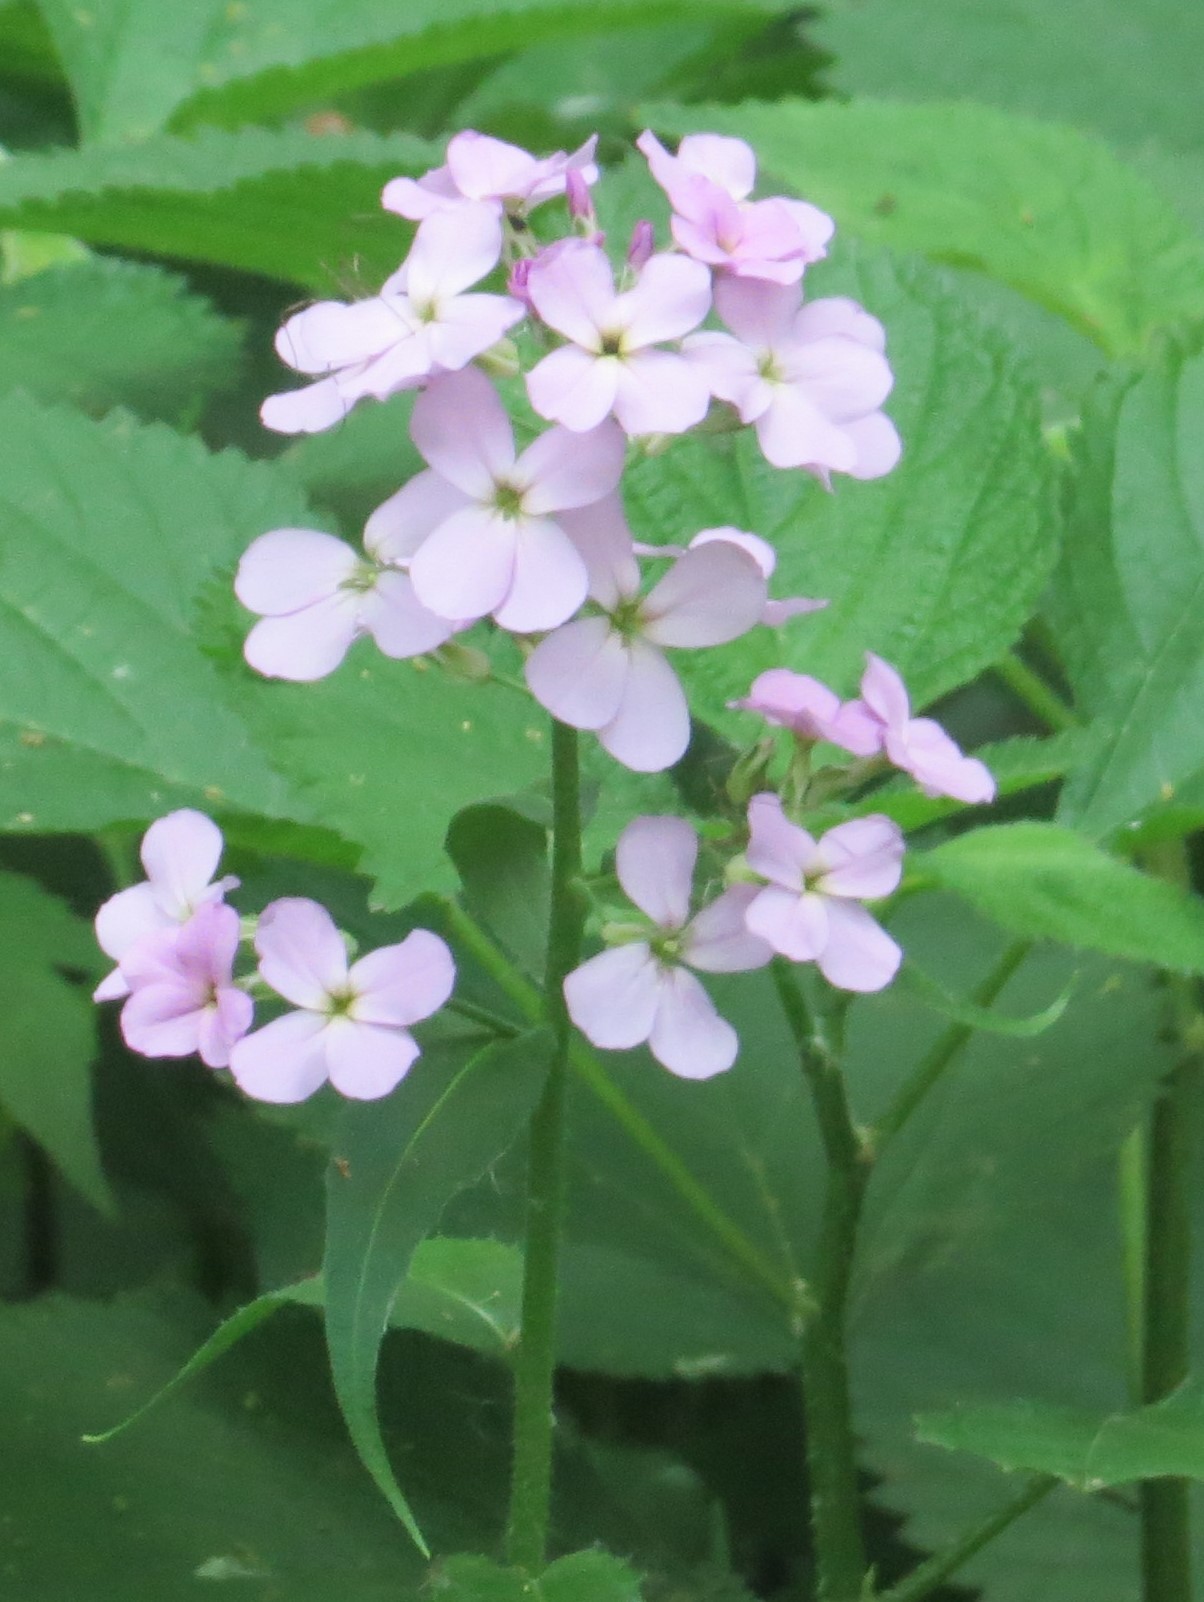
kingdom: Plantae
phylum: Tracheophyta
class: Magnoliopsida
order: Brassicales
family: Brassicaceae
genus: Hesperis
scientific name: Hesperis matronalis
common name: Dame's-violet
